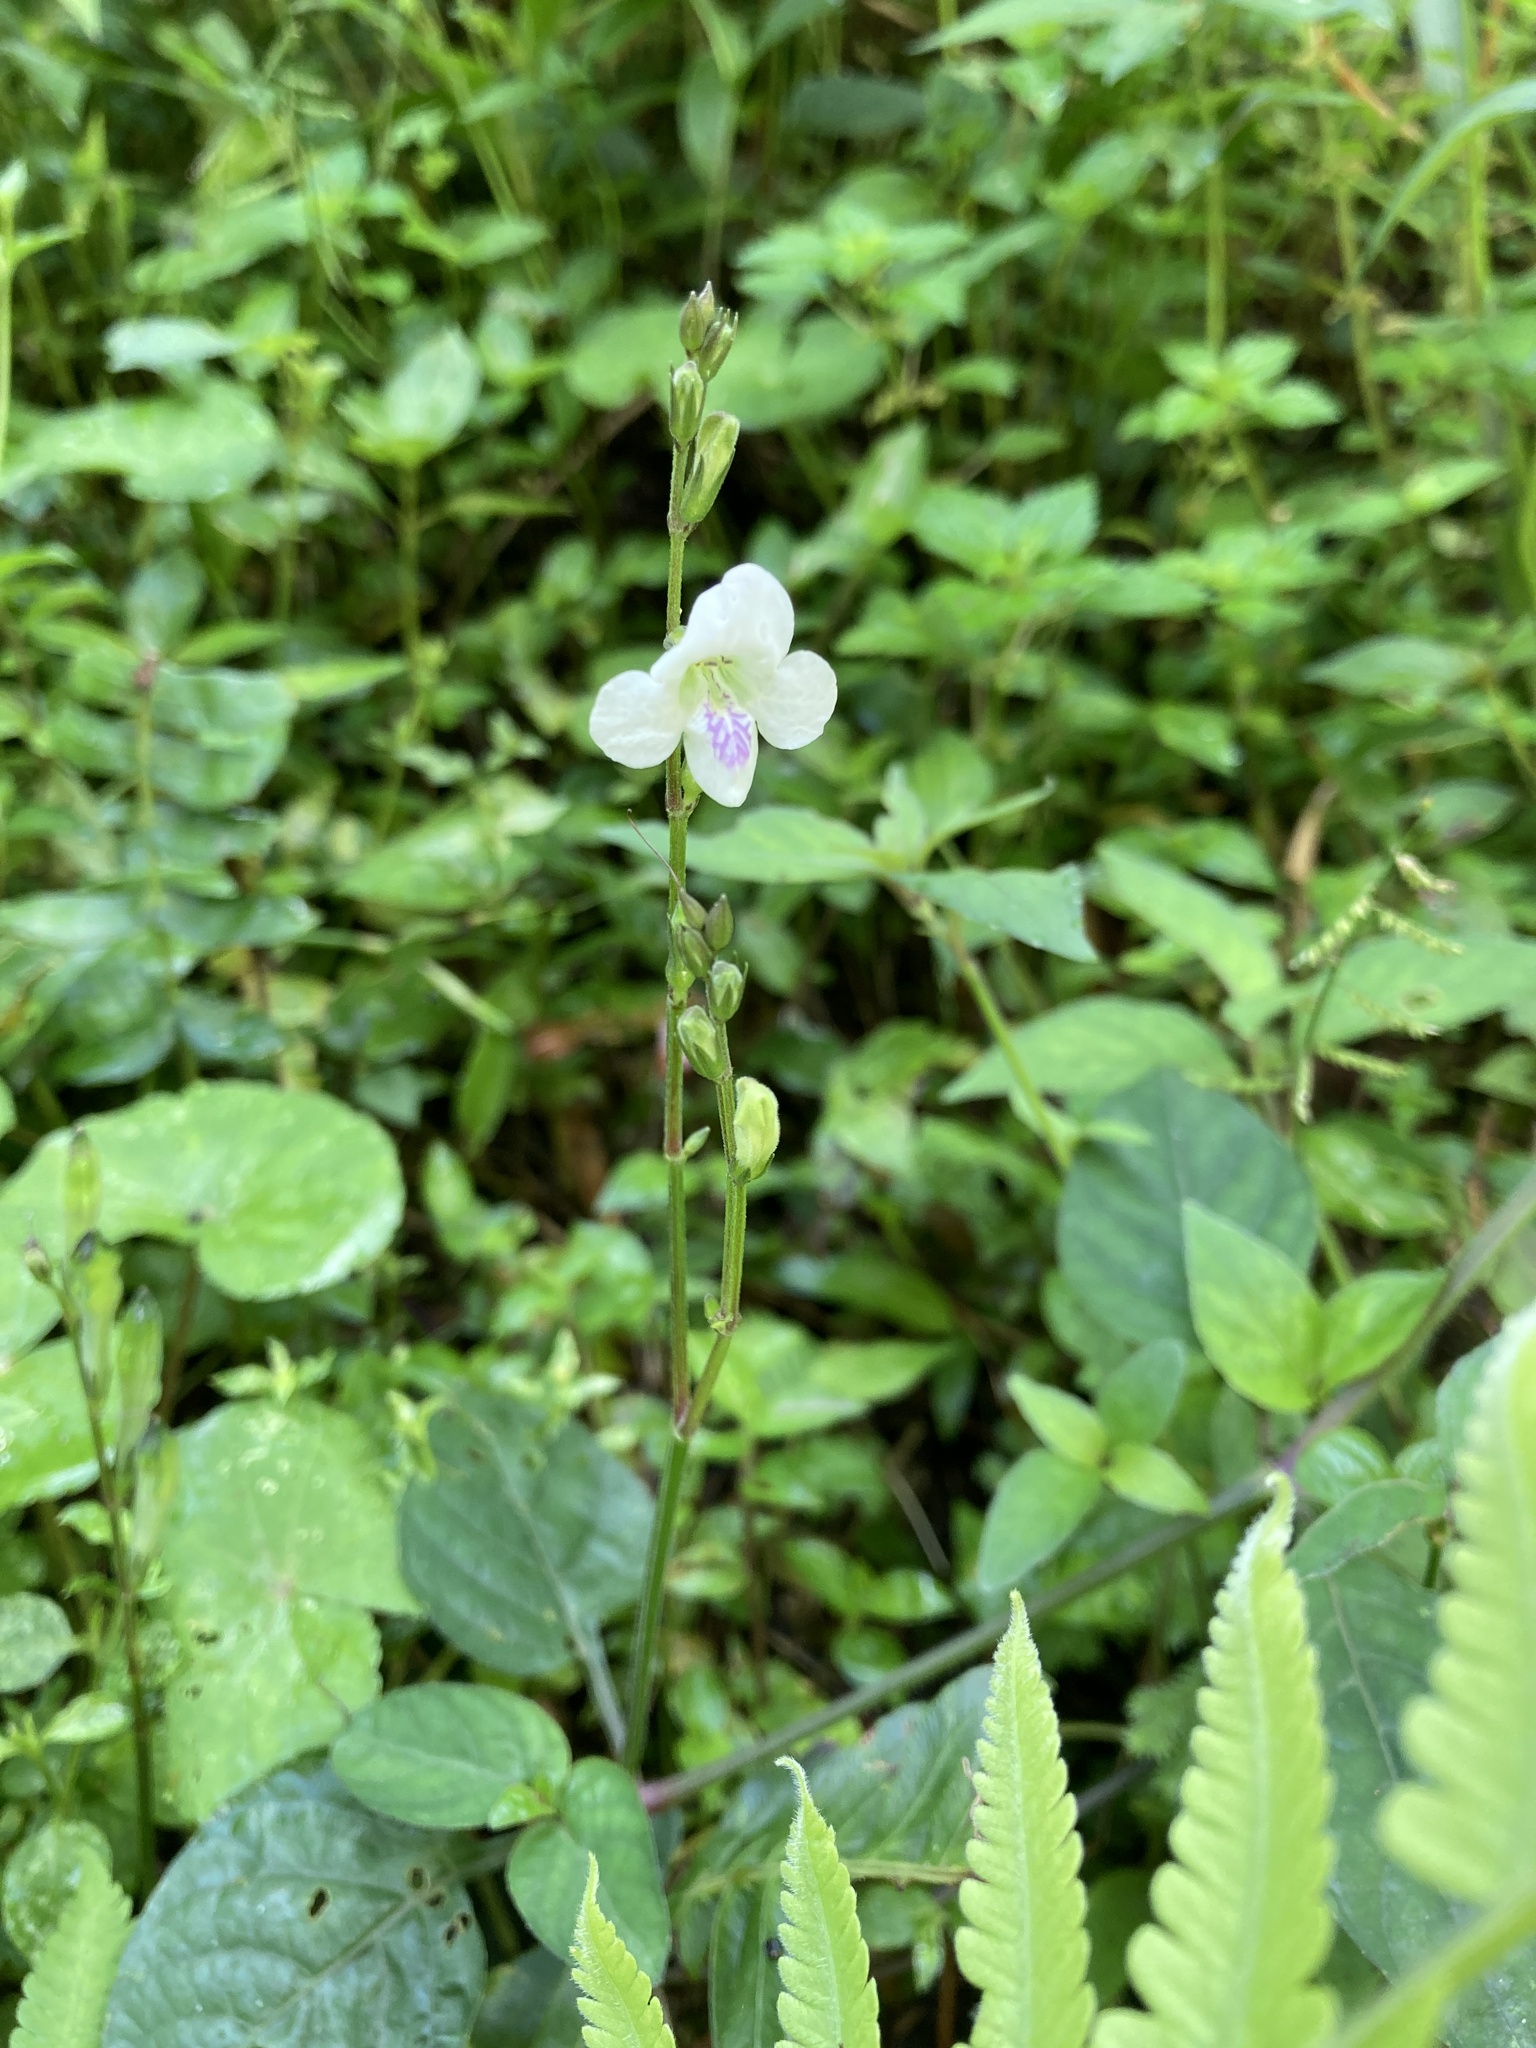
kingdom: Plantae
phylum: Tracheophyta
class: Magnoliopsida
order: Lamiales
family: Acanthaceae
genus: Asystasia
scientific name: Asystasia intrusa
